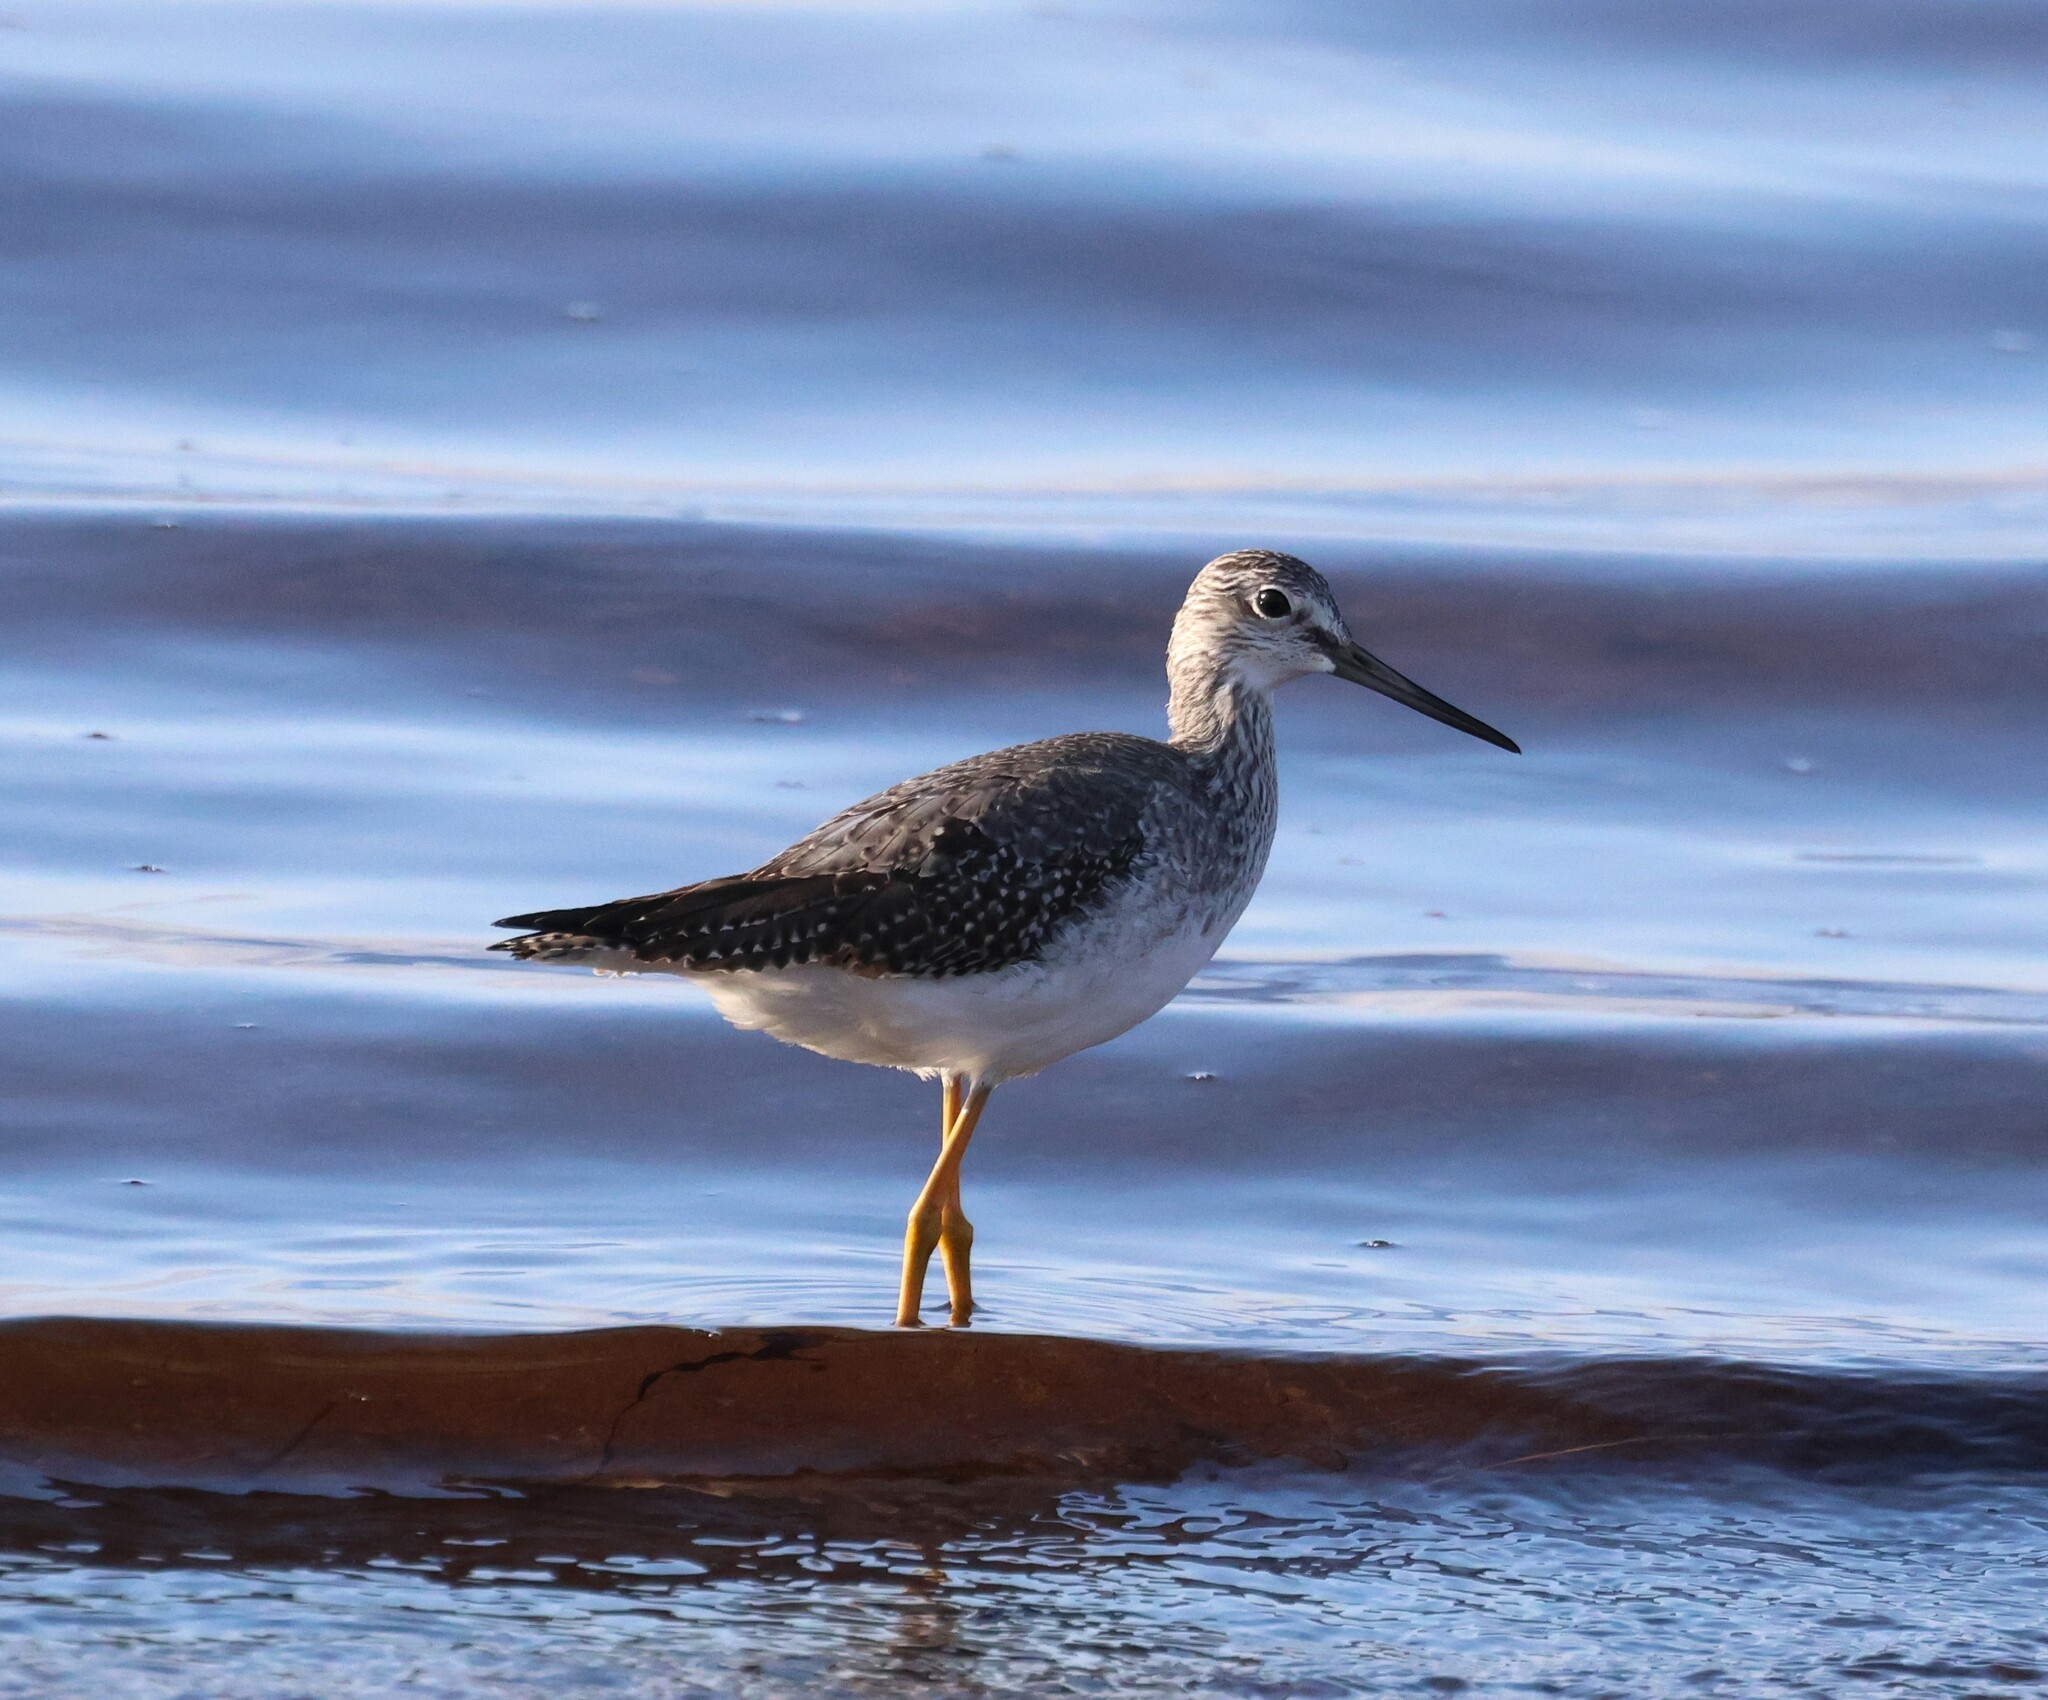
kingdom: Animalia
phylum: Chordata
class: Aves
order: Charadriiformes
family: Scolopacidae
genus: Tringa
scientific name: Tringa melanoleuca
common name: Greater yellowlegs
